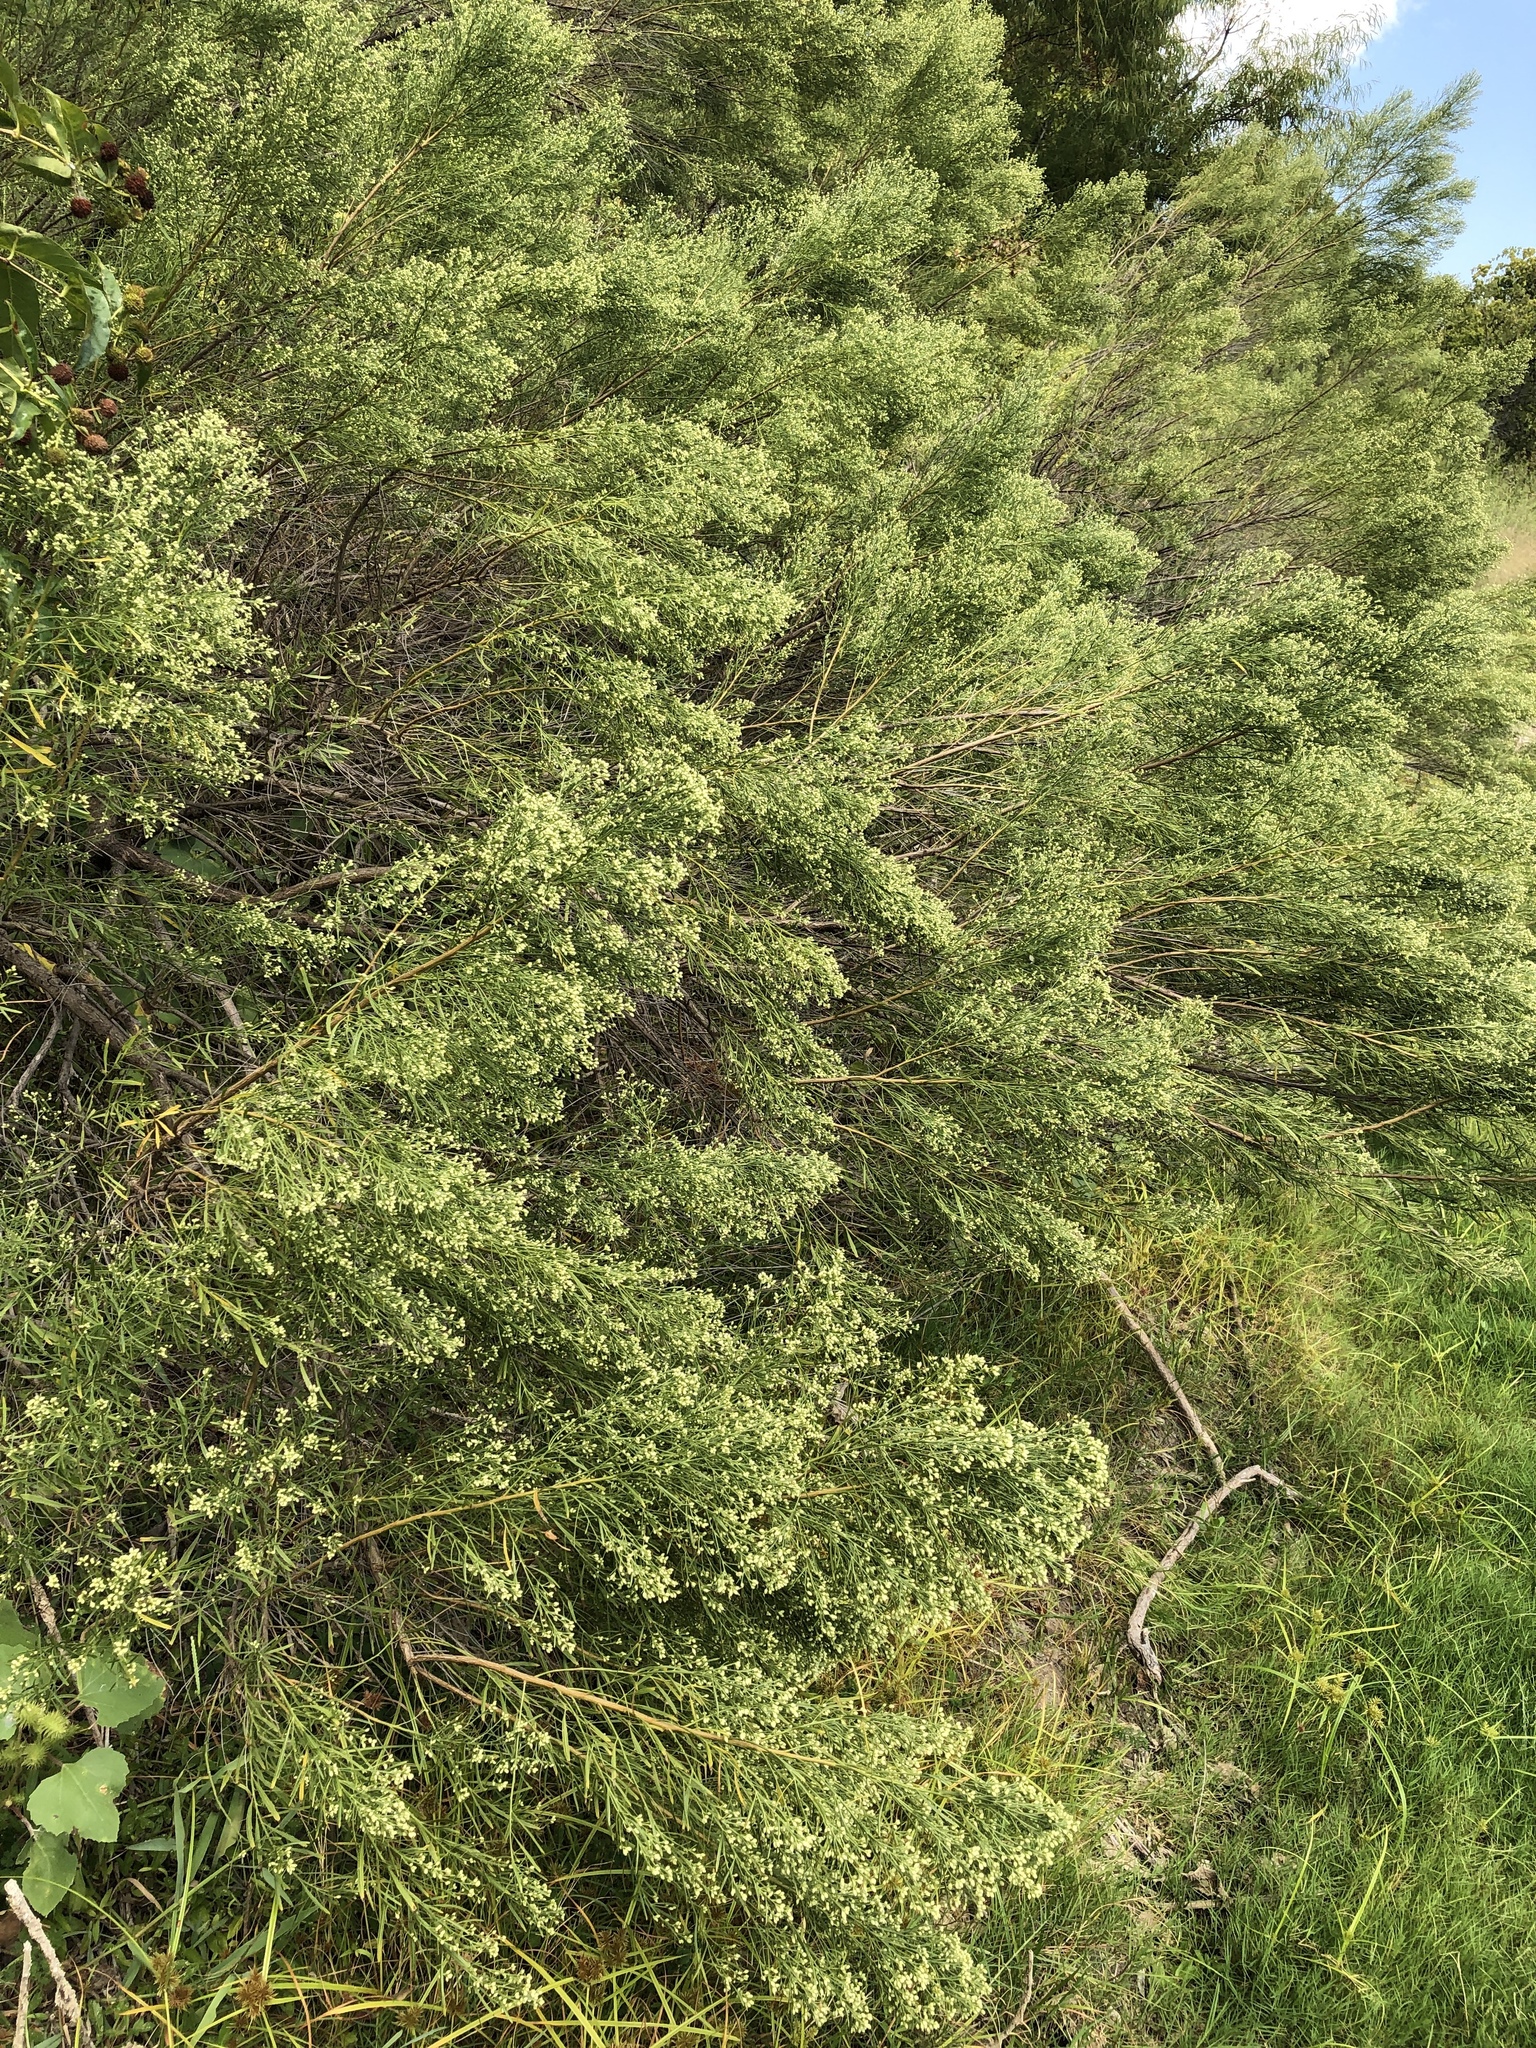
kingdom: Plantae
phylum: Tracheophyta
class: Magnoliopsida
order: Asterales
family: Asteraceae
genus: Baccharis
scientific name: Baccharis neglecta
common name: Roosevelt-weed
